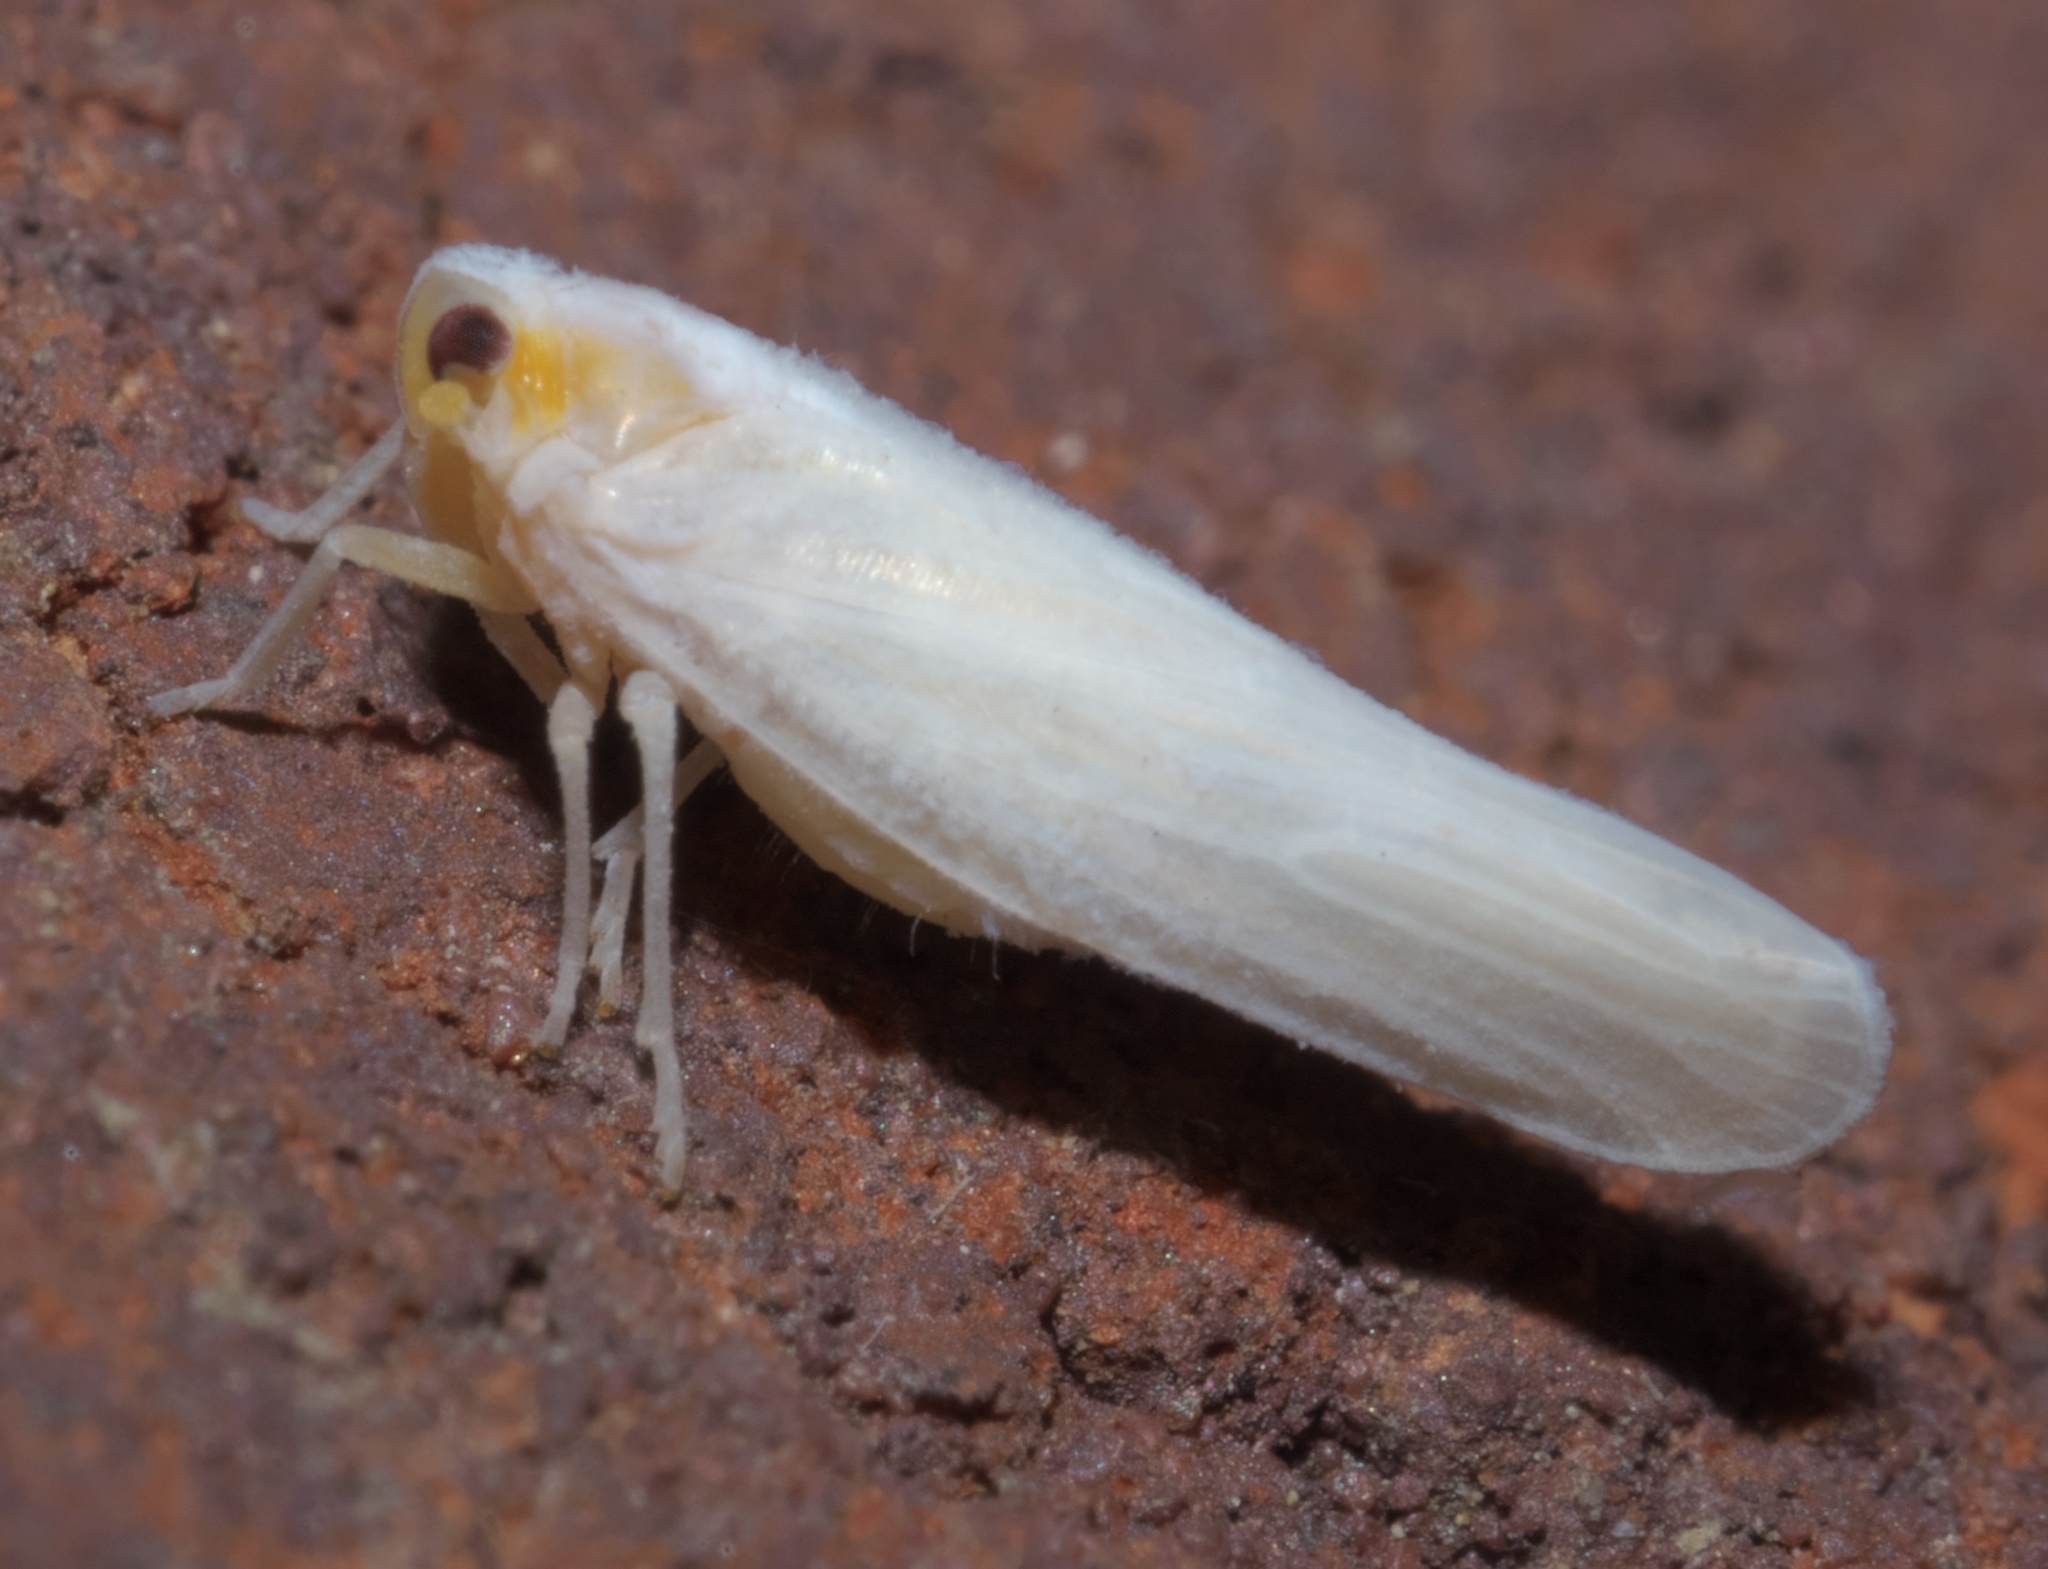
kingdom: Animalia
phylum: Arthropoda
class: Insecta
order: Hemiptera
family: Derbidae
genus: Neocenchrea
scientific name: Neocenchrea heidemanni
